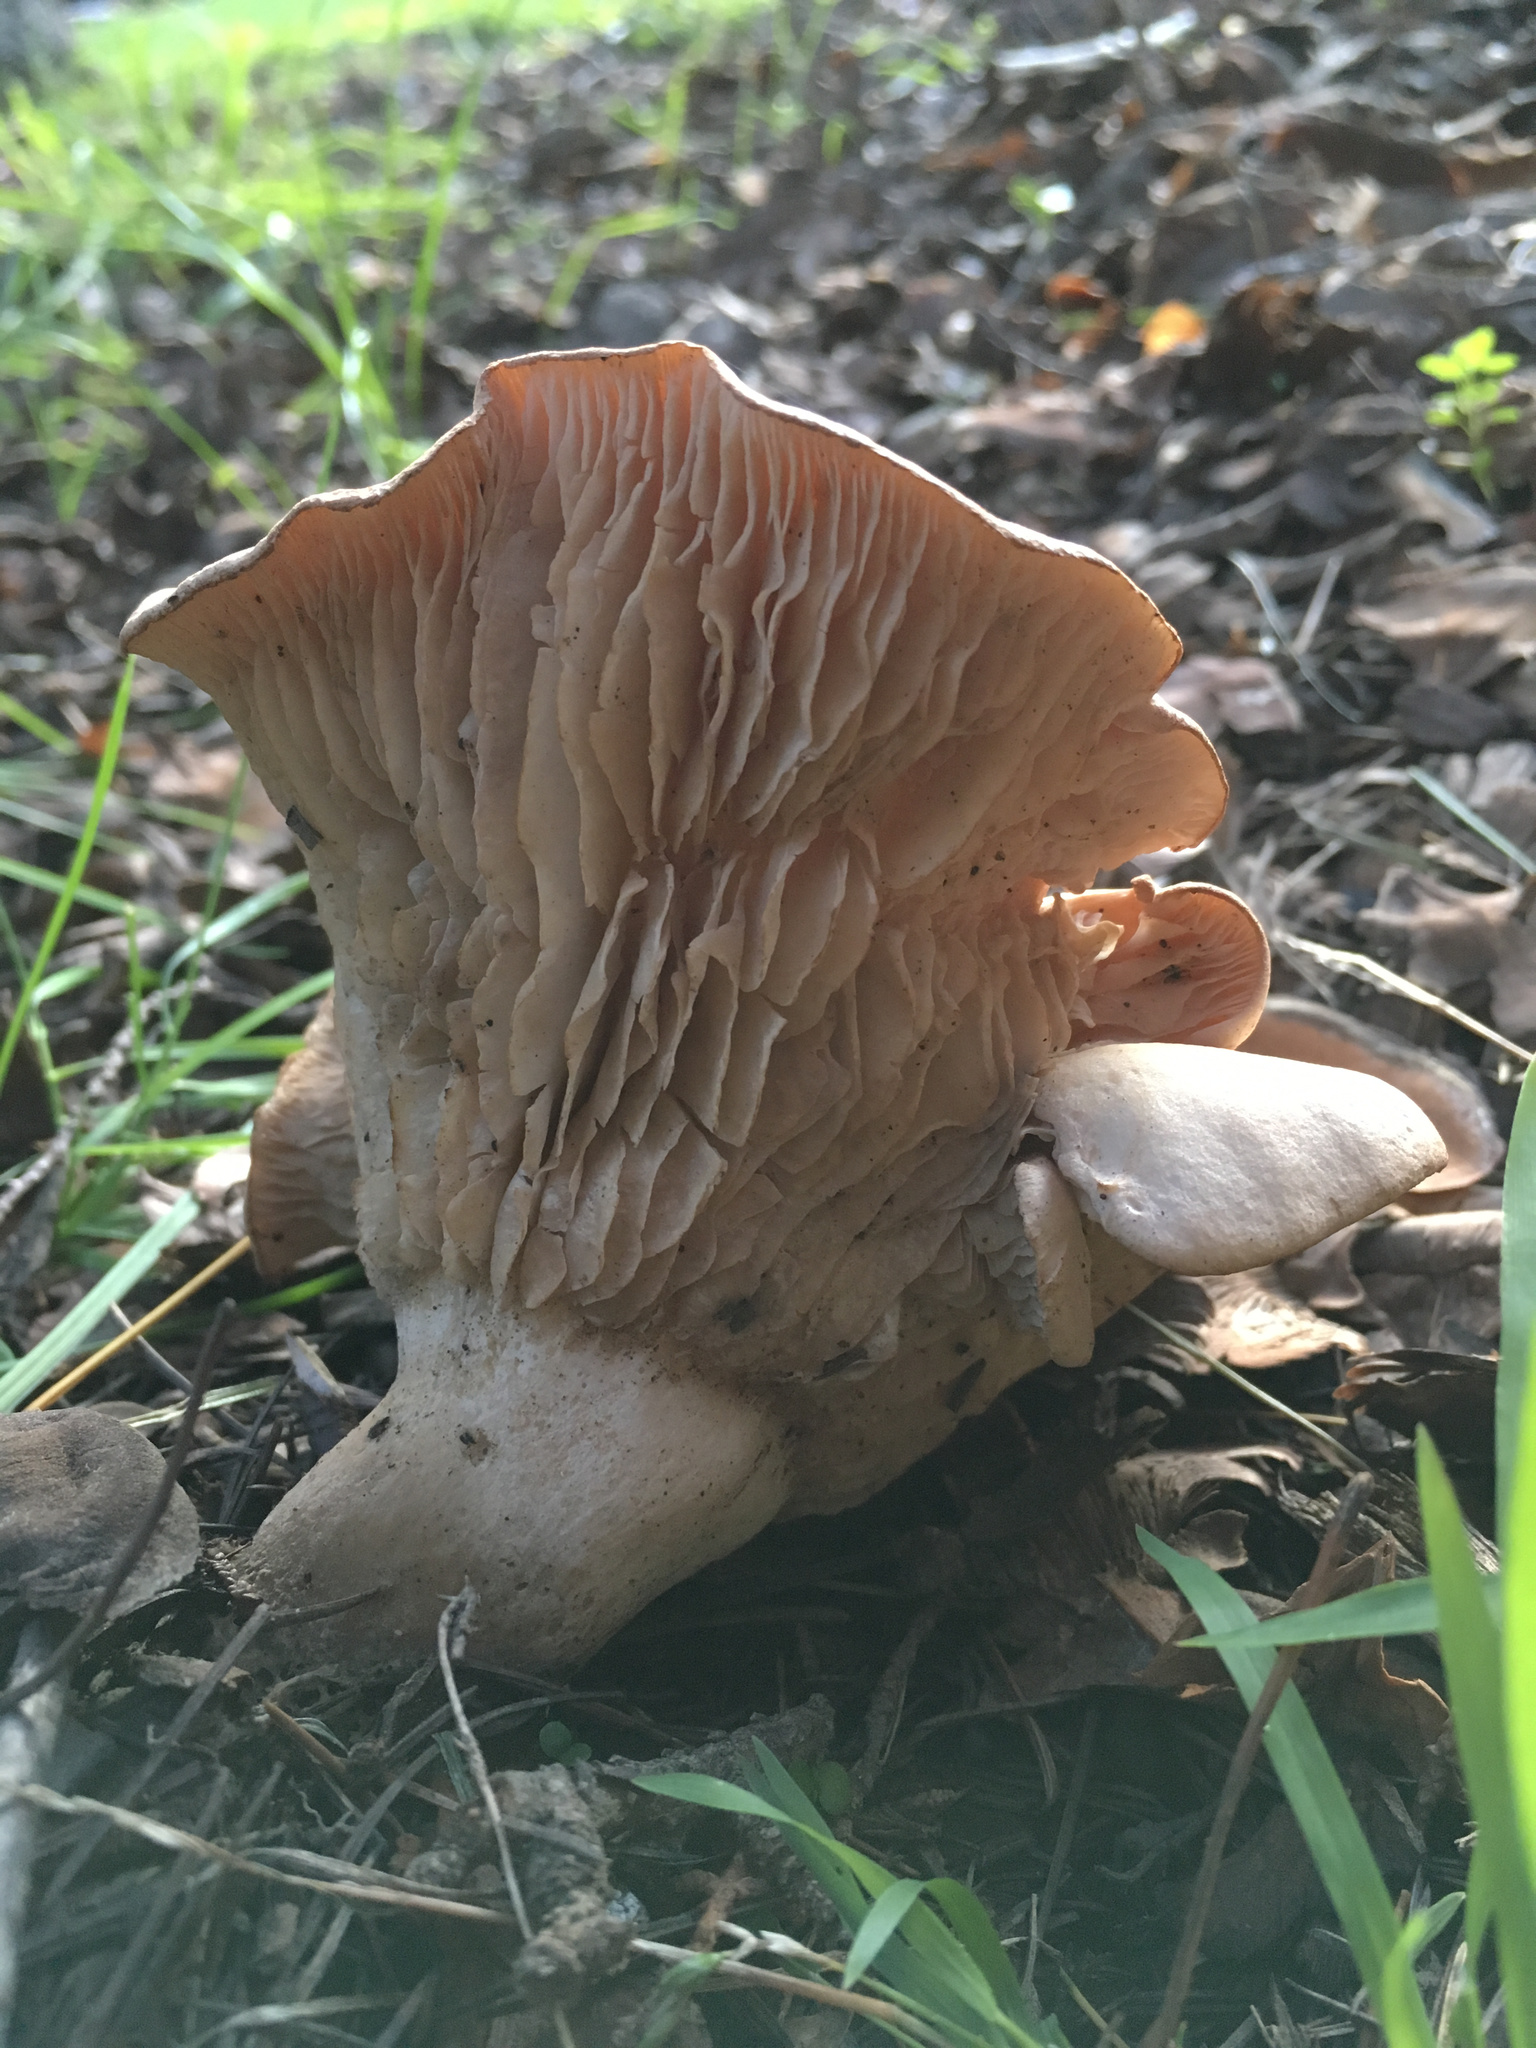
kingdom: Fungi
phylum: Basidiomycota
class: Agaricomycetes
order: Agaricales
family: Entolomataceae
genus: Clitopilus
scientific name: Clitopilus piperitus
